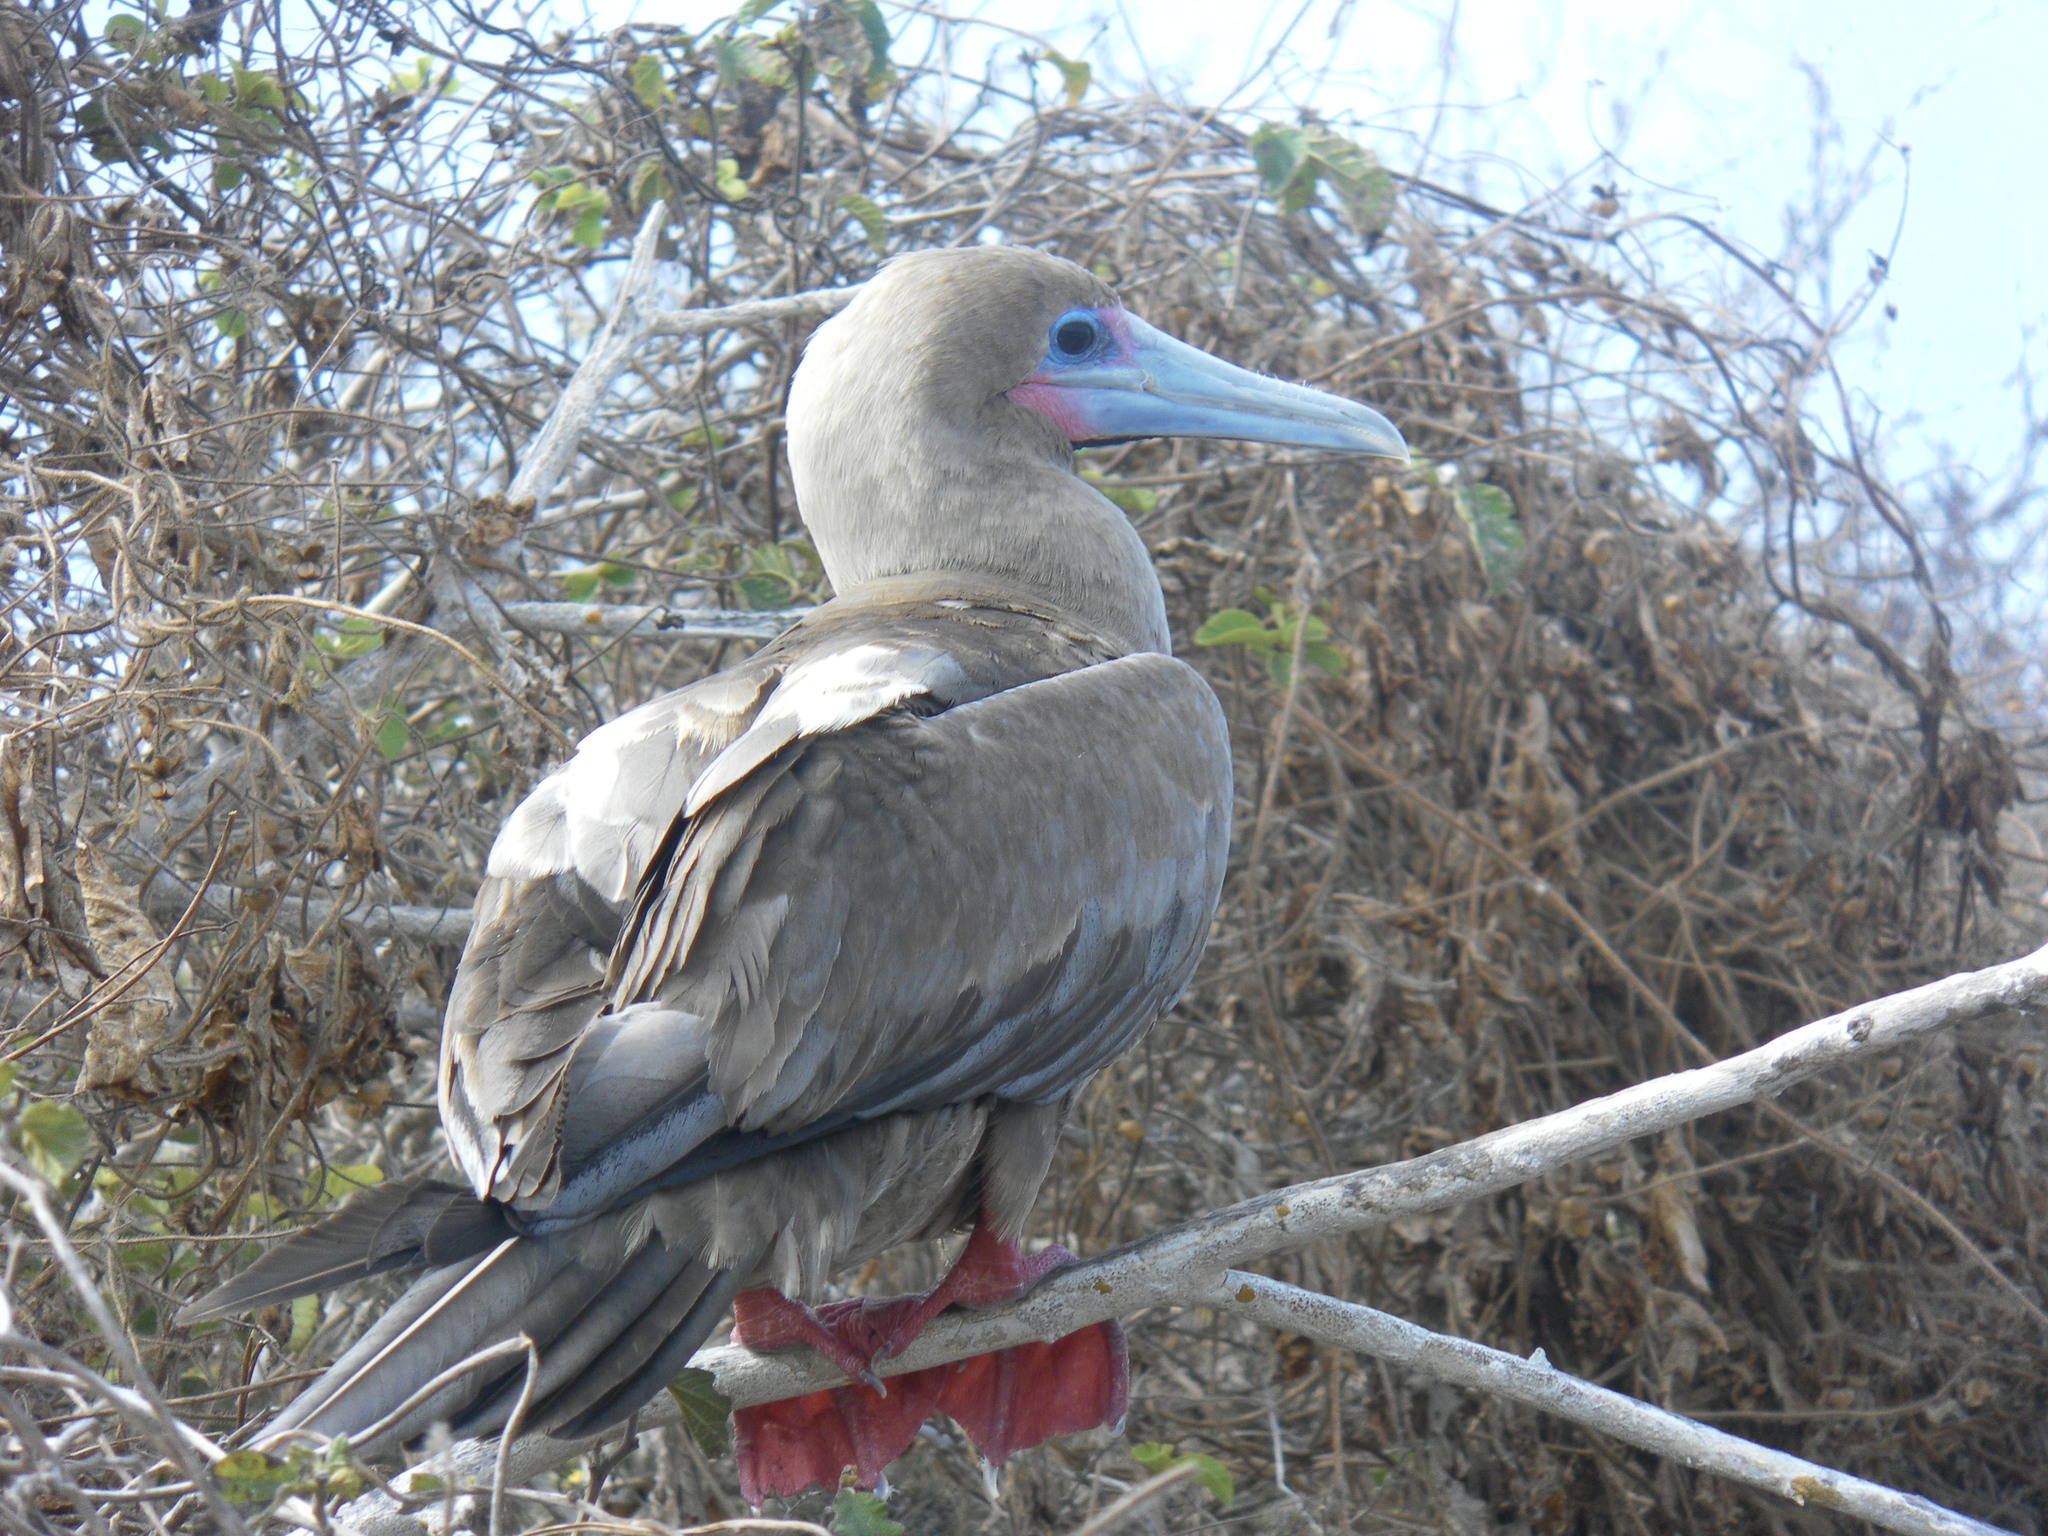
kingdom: Animalia
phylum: Chordata
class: Aves
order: Suliformes
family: Sulidae
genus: Sula
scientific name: Sula sula
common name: Red-footed booby
